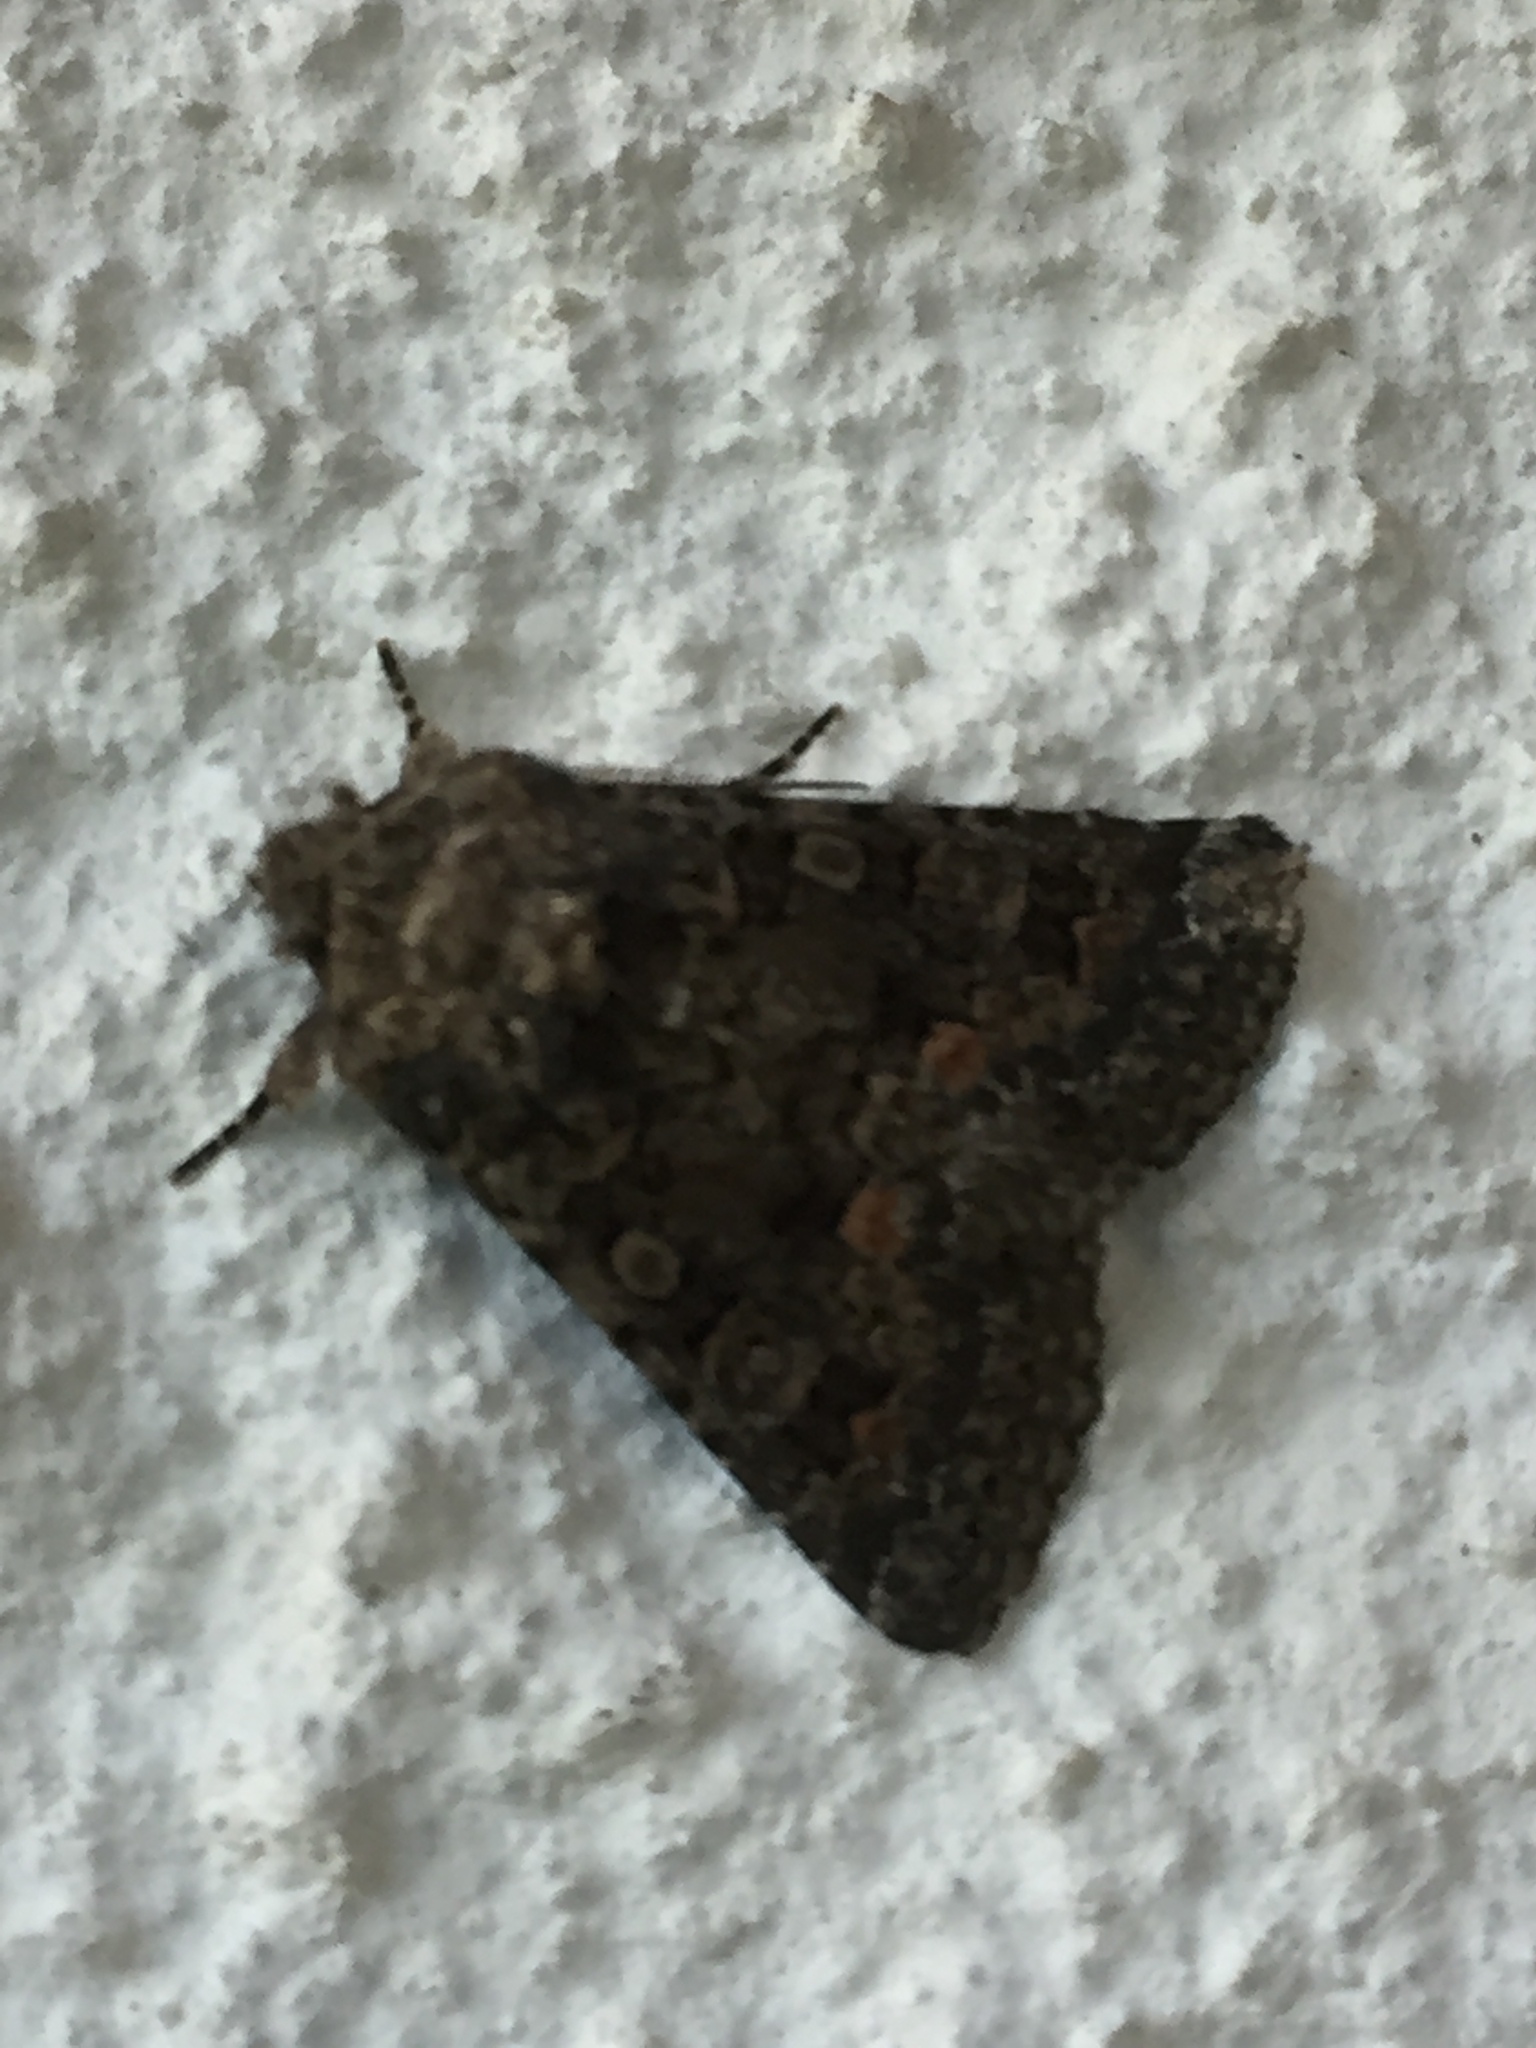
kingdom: Animalia
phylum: Arthropoda
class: Insecta
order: Lepidoptera
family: Noctuidae
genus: Klugeana
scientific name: Klugeana philoxalis
